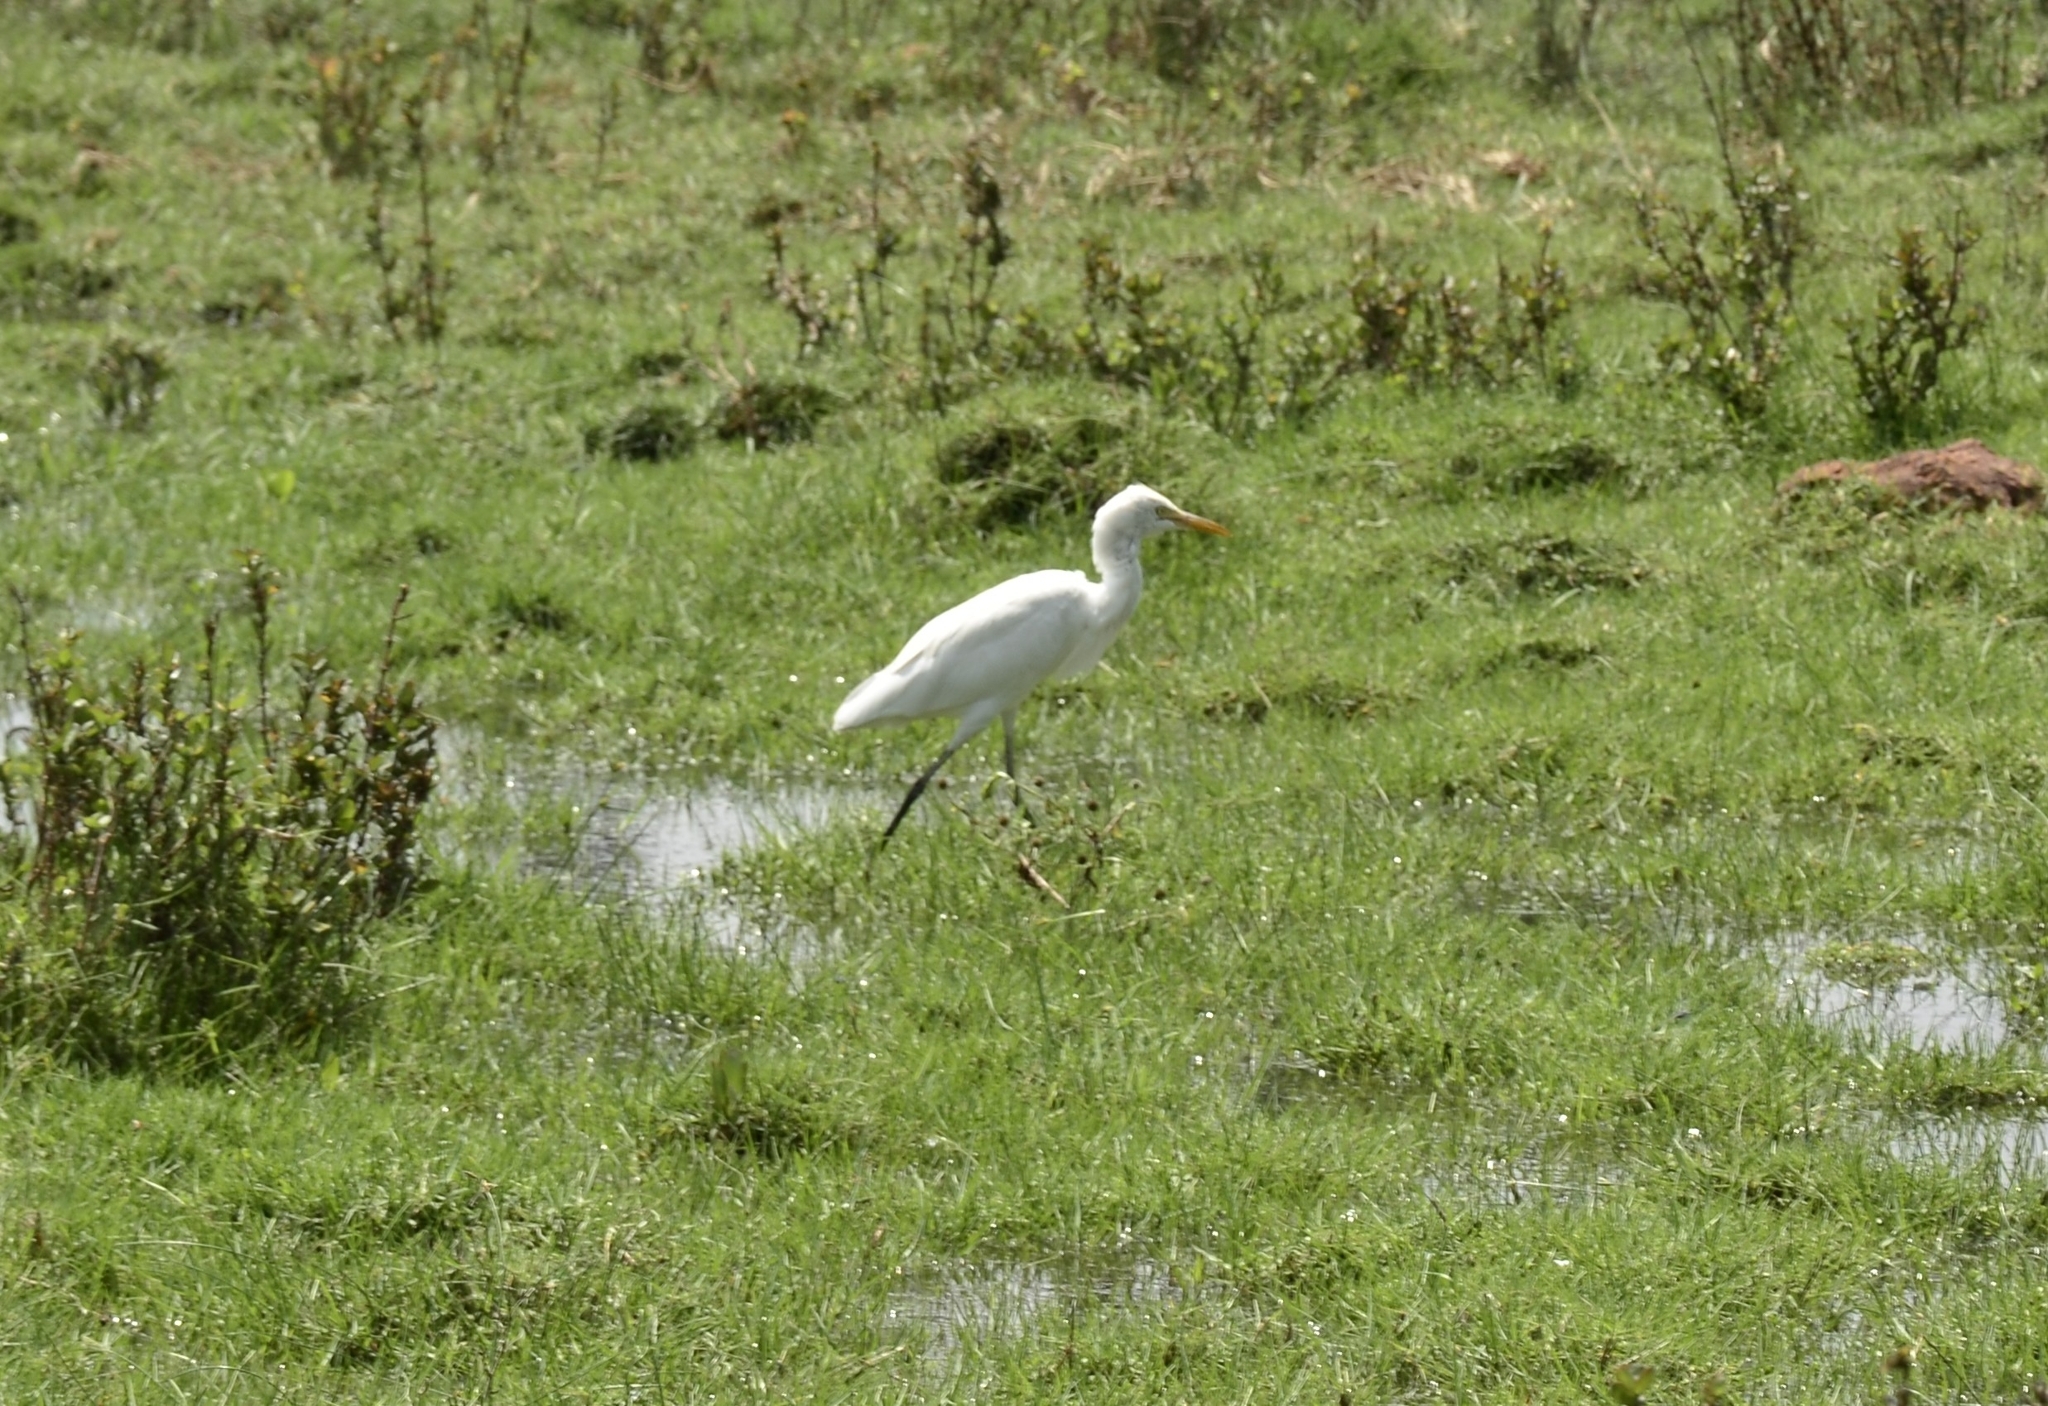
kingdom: Animalia
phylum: Chordata
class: Aves
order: Pelecaniformes
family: Ardeidae
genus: Bubulcus
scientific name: Bubulcus coromandus
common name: Eastern cattle egret
